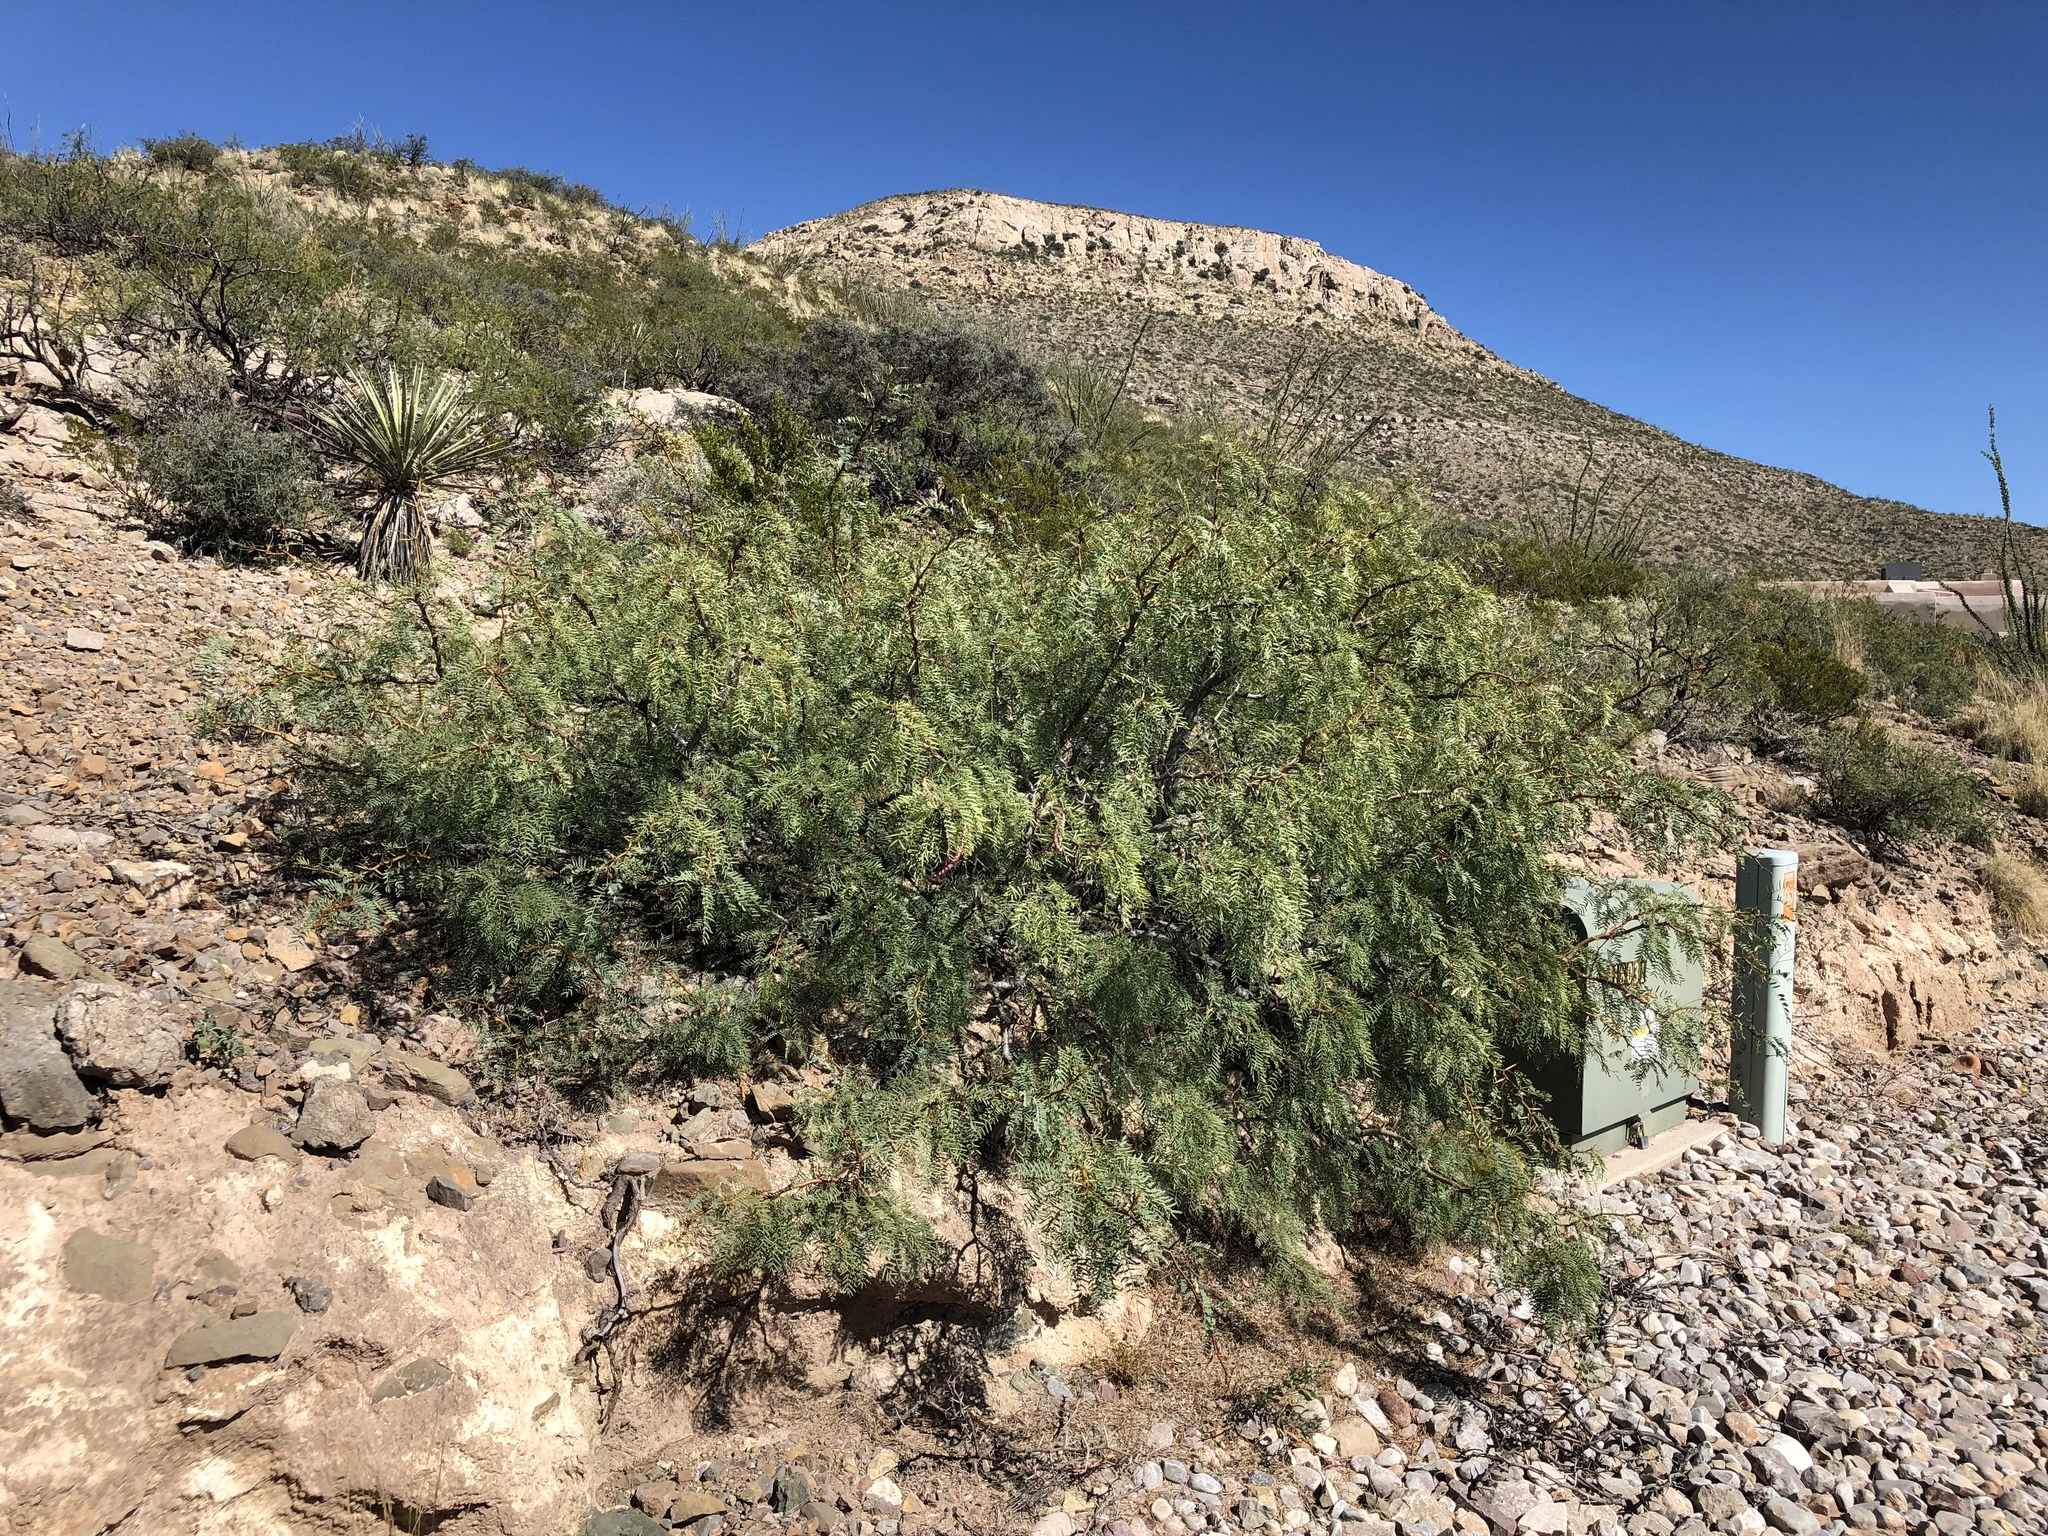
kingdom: Plantae
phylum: Tracheophyta
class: Magnoliopsida
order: Fabales
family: Fabaceae
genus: Prosopis
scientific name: Prosopis glandulosa
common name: Honey mesquite
